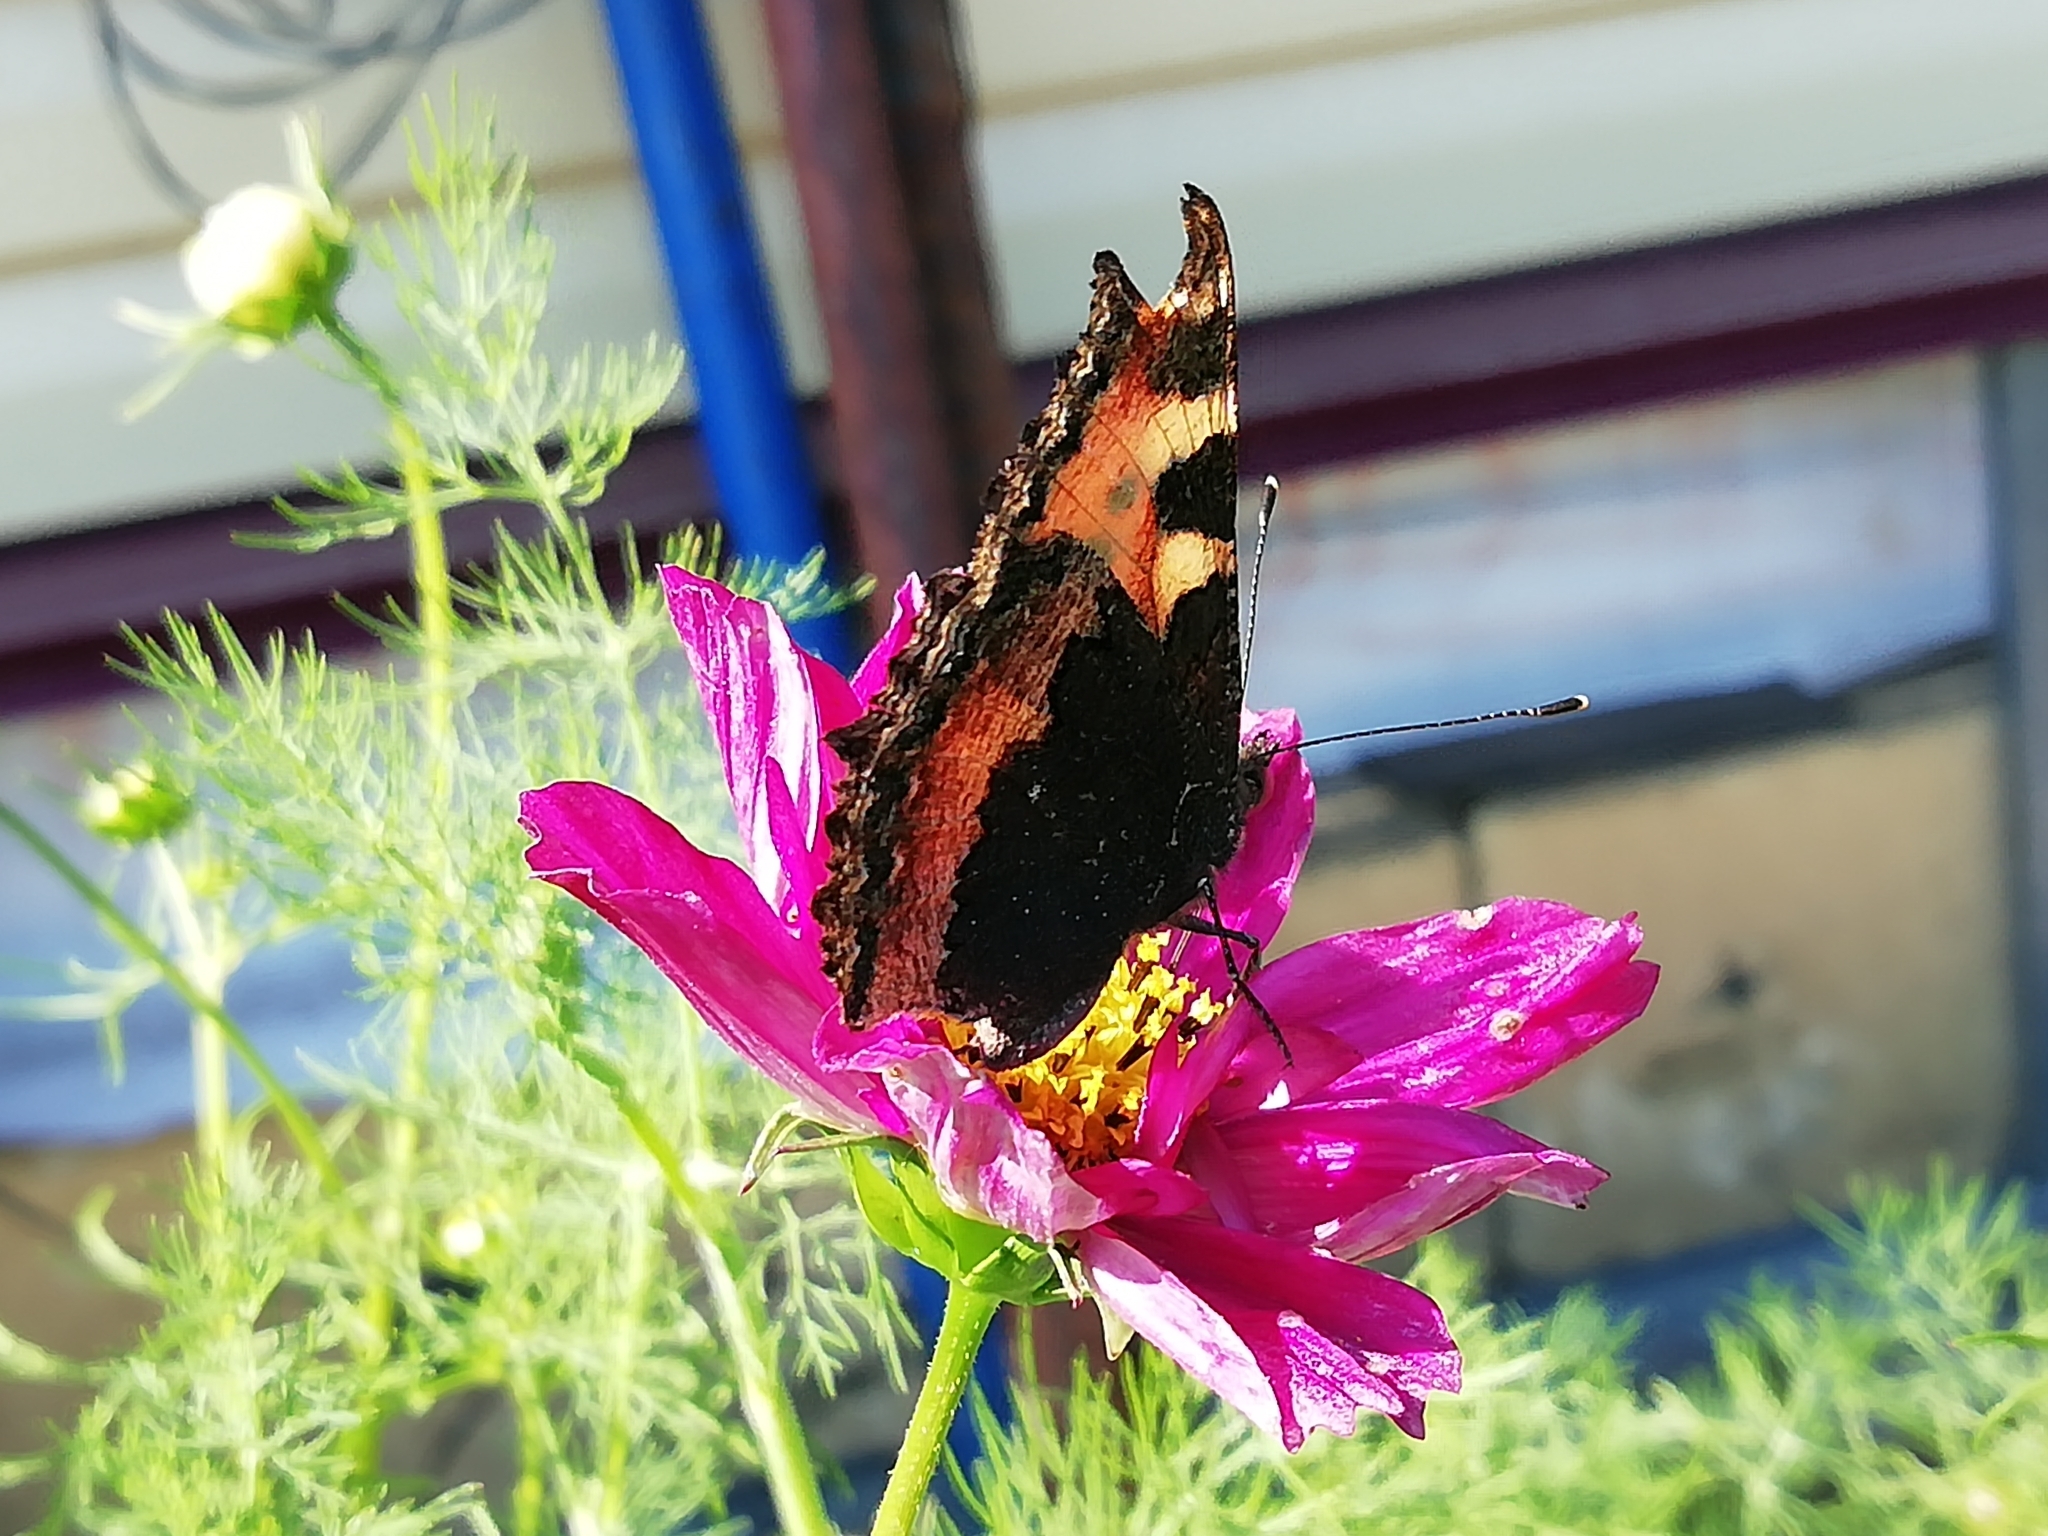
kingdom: Animalia
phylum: Arthropoda
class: Insecta
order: Lepidoptera
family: Nymphalidae
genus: Aglais
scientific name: Aglais urticae
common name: Small tortoiseshell
